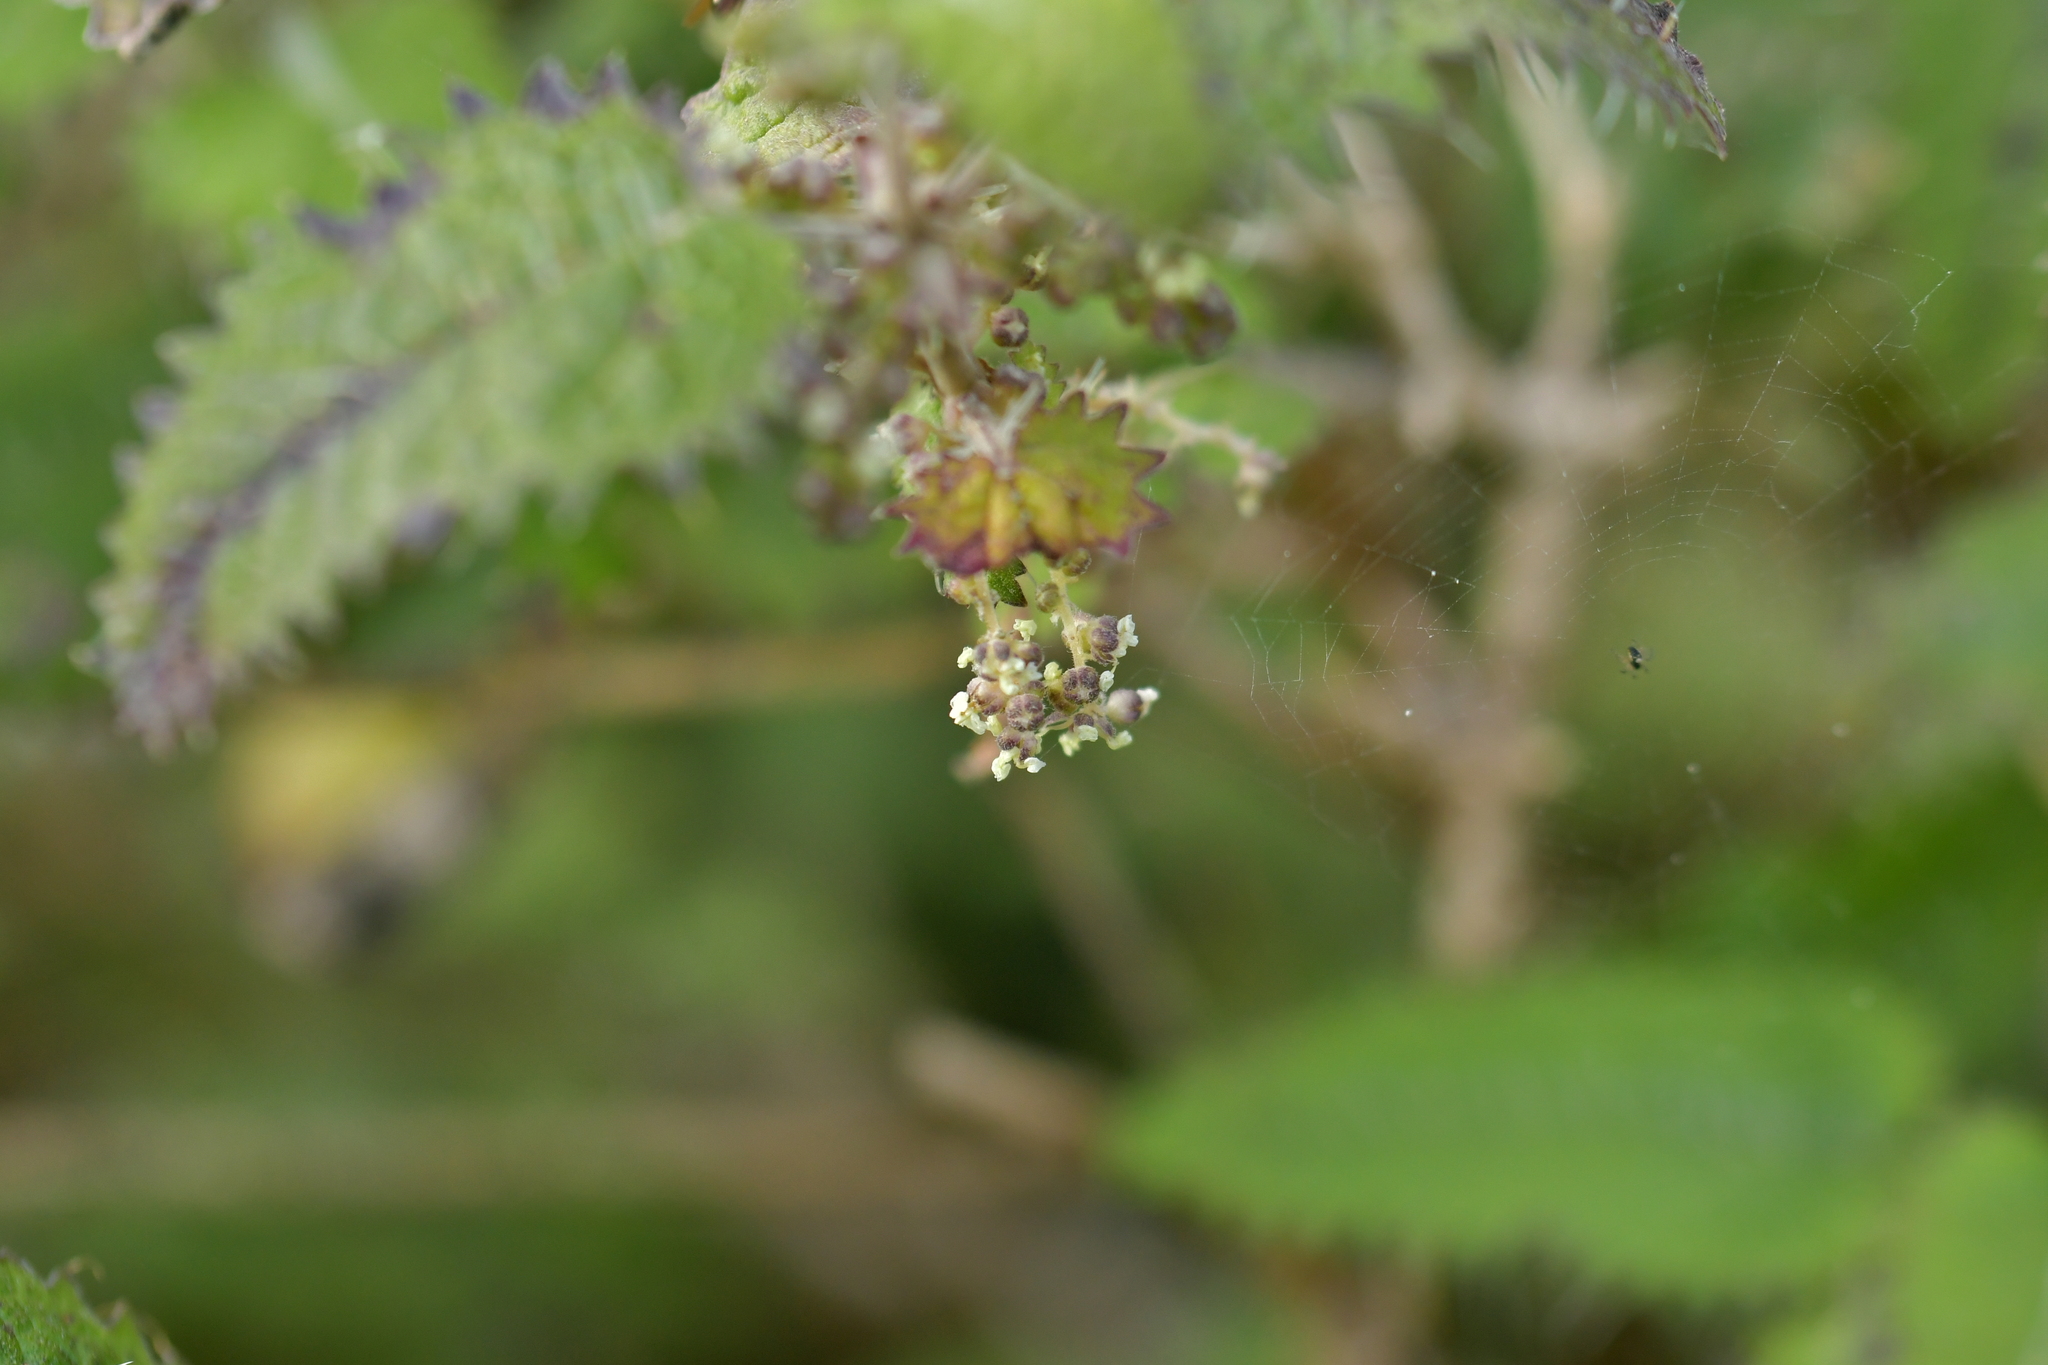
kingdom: Plantae
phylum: Tracheophyta
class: Magnoliopsida
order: Rosales
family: Urticaceae
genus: Urtica
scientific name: Urtica ferox
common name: Tree nettle
